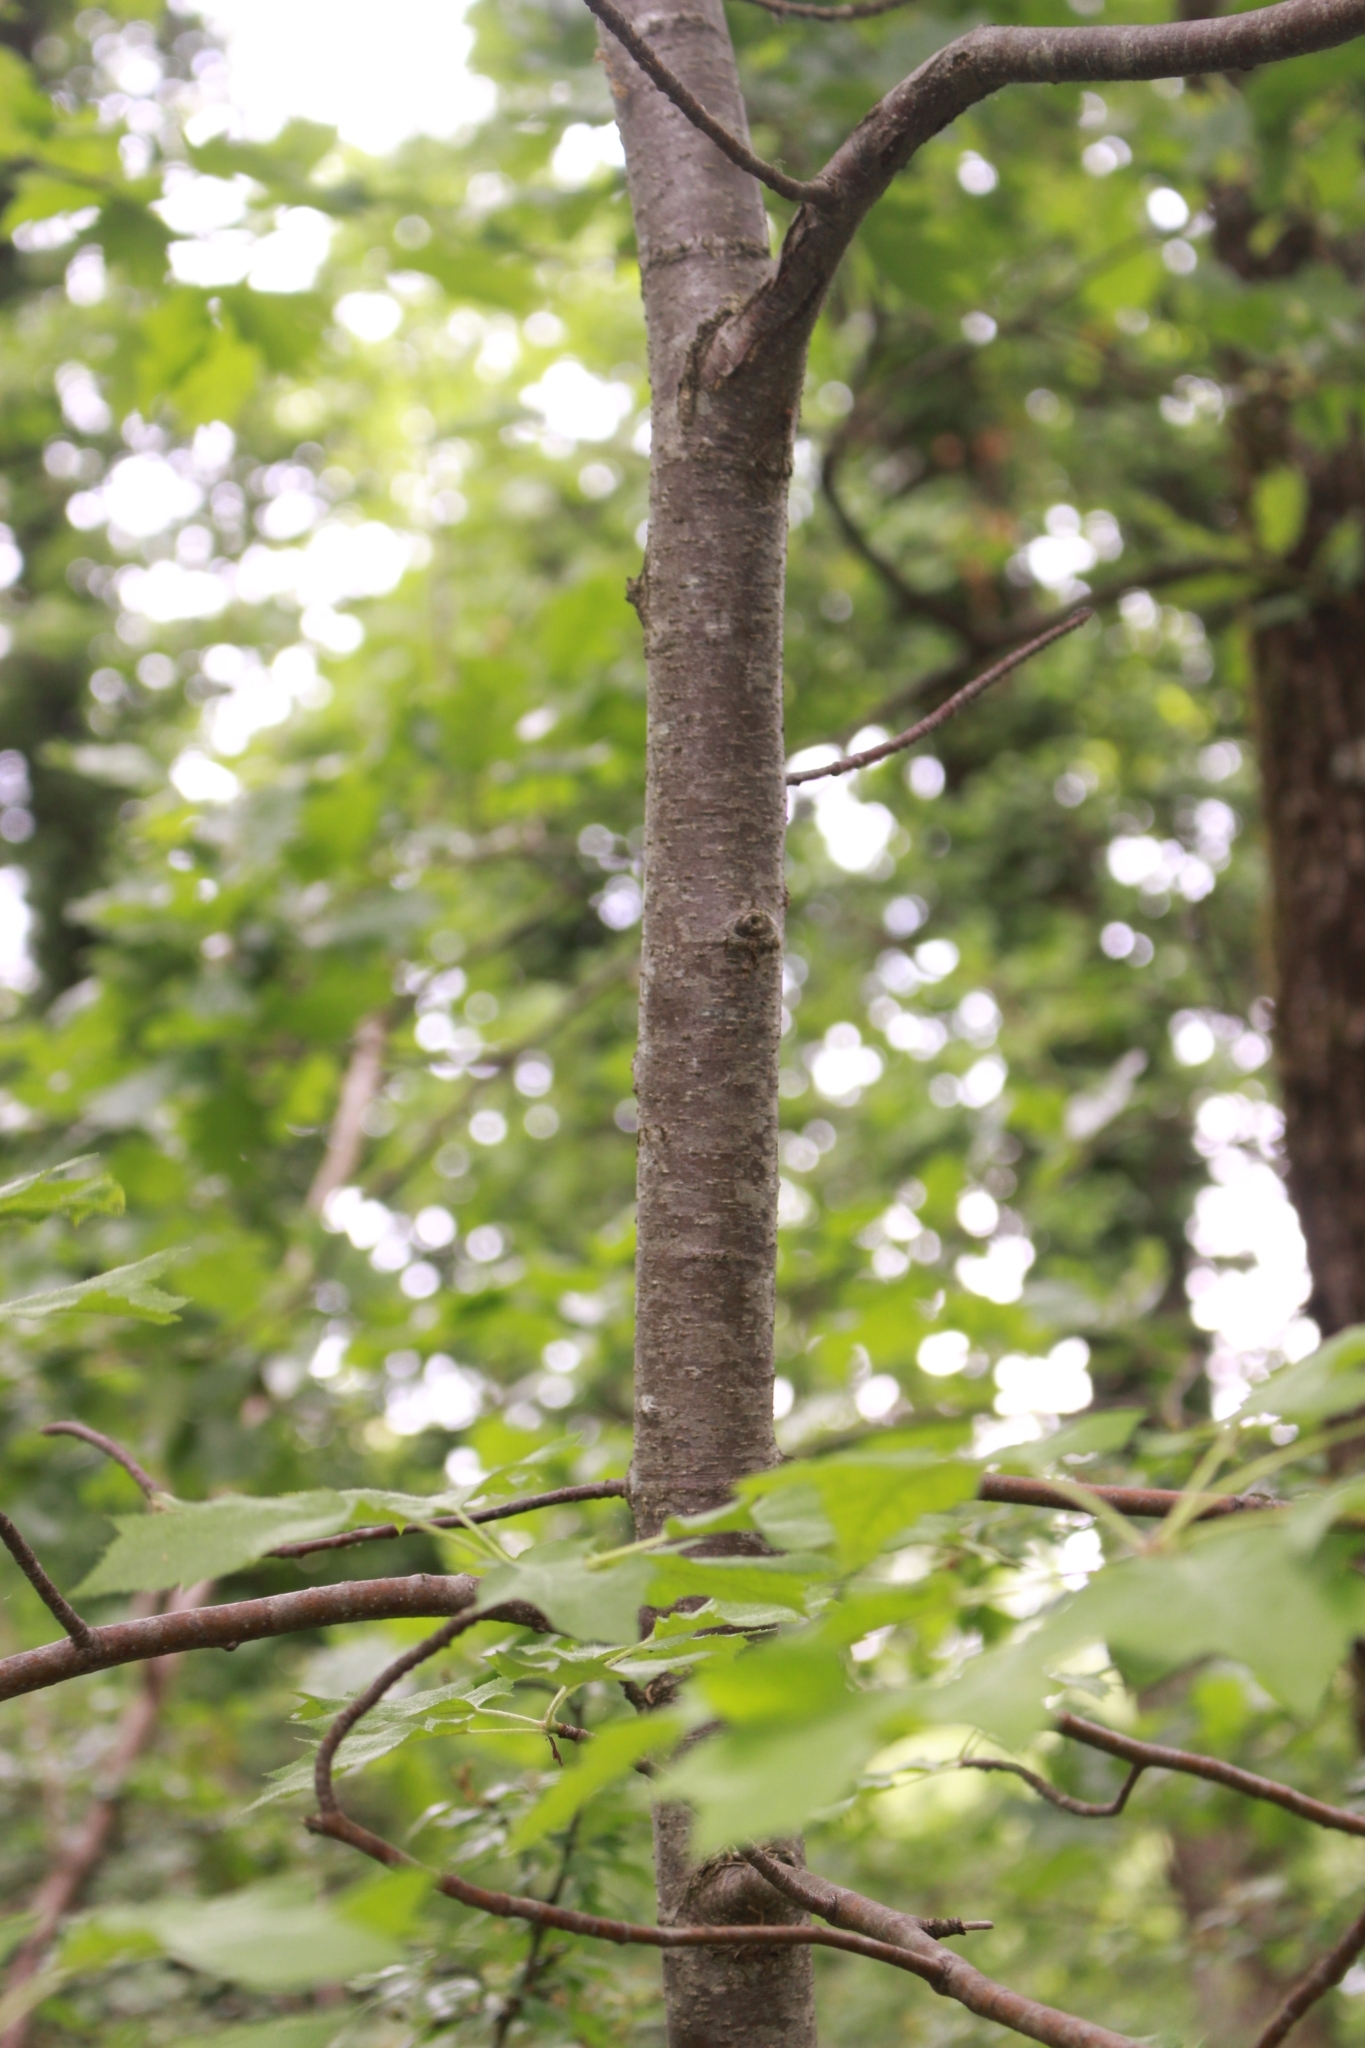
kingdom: Plantae
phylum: Tracheophyta
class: Magnoliopsida
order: Rosales
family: Rosaceae
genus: Torminalis
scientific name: Torminalis glaberrima
